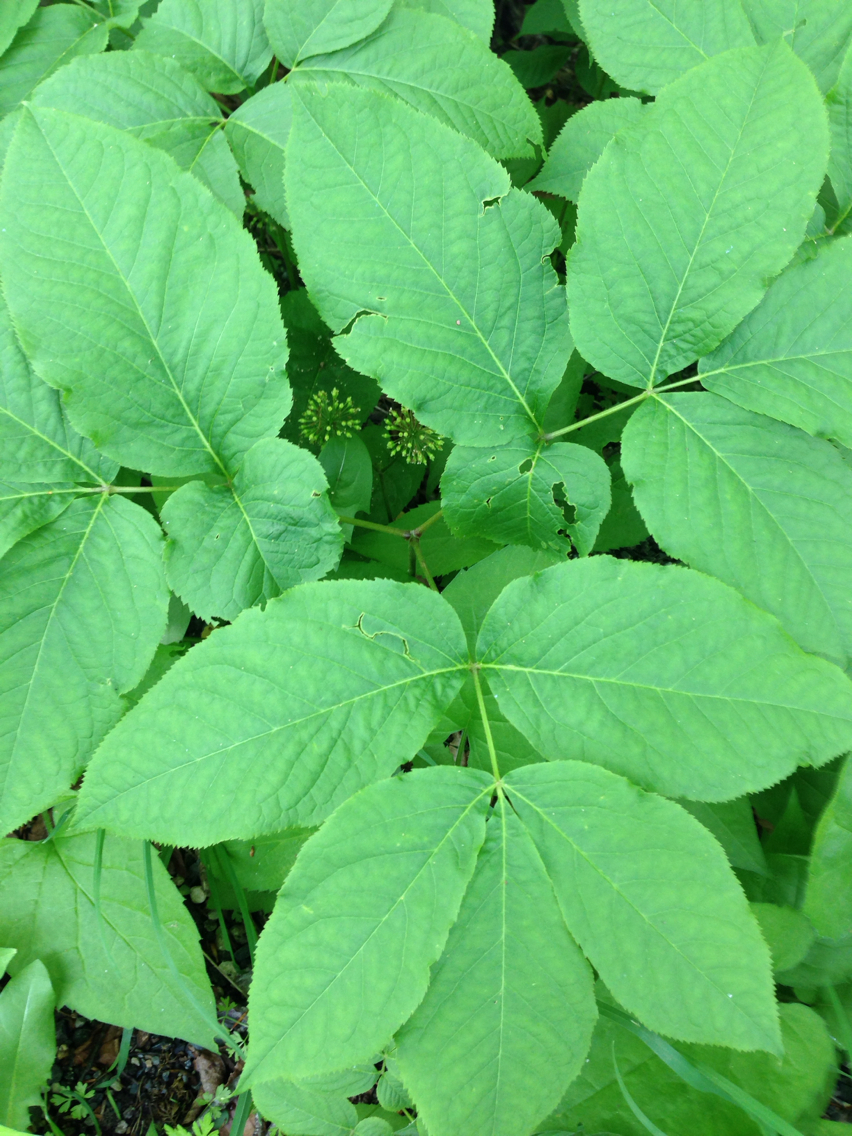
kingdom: Plantae
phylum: Tracheophyta
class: Magnoliopsida
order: Apiales
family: Araliaceae
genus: Aralia
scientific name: Aralia nudicaulis
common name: Wild sarsaparilla
